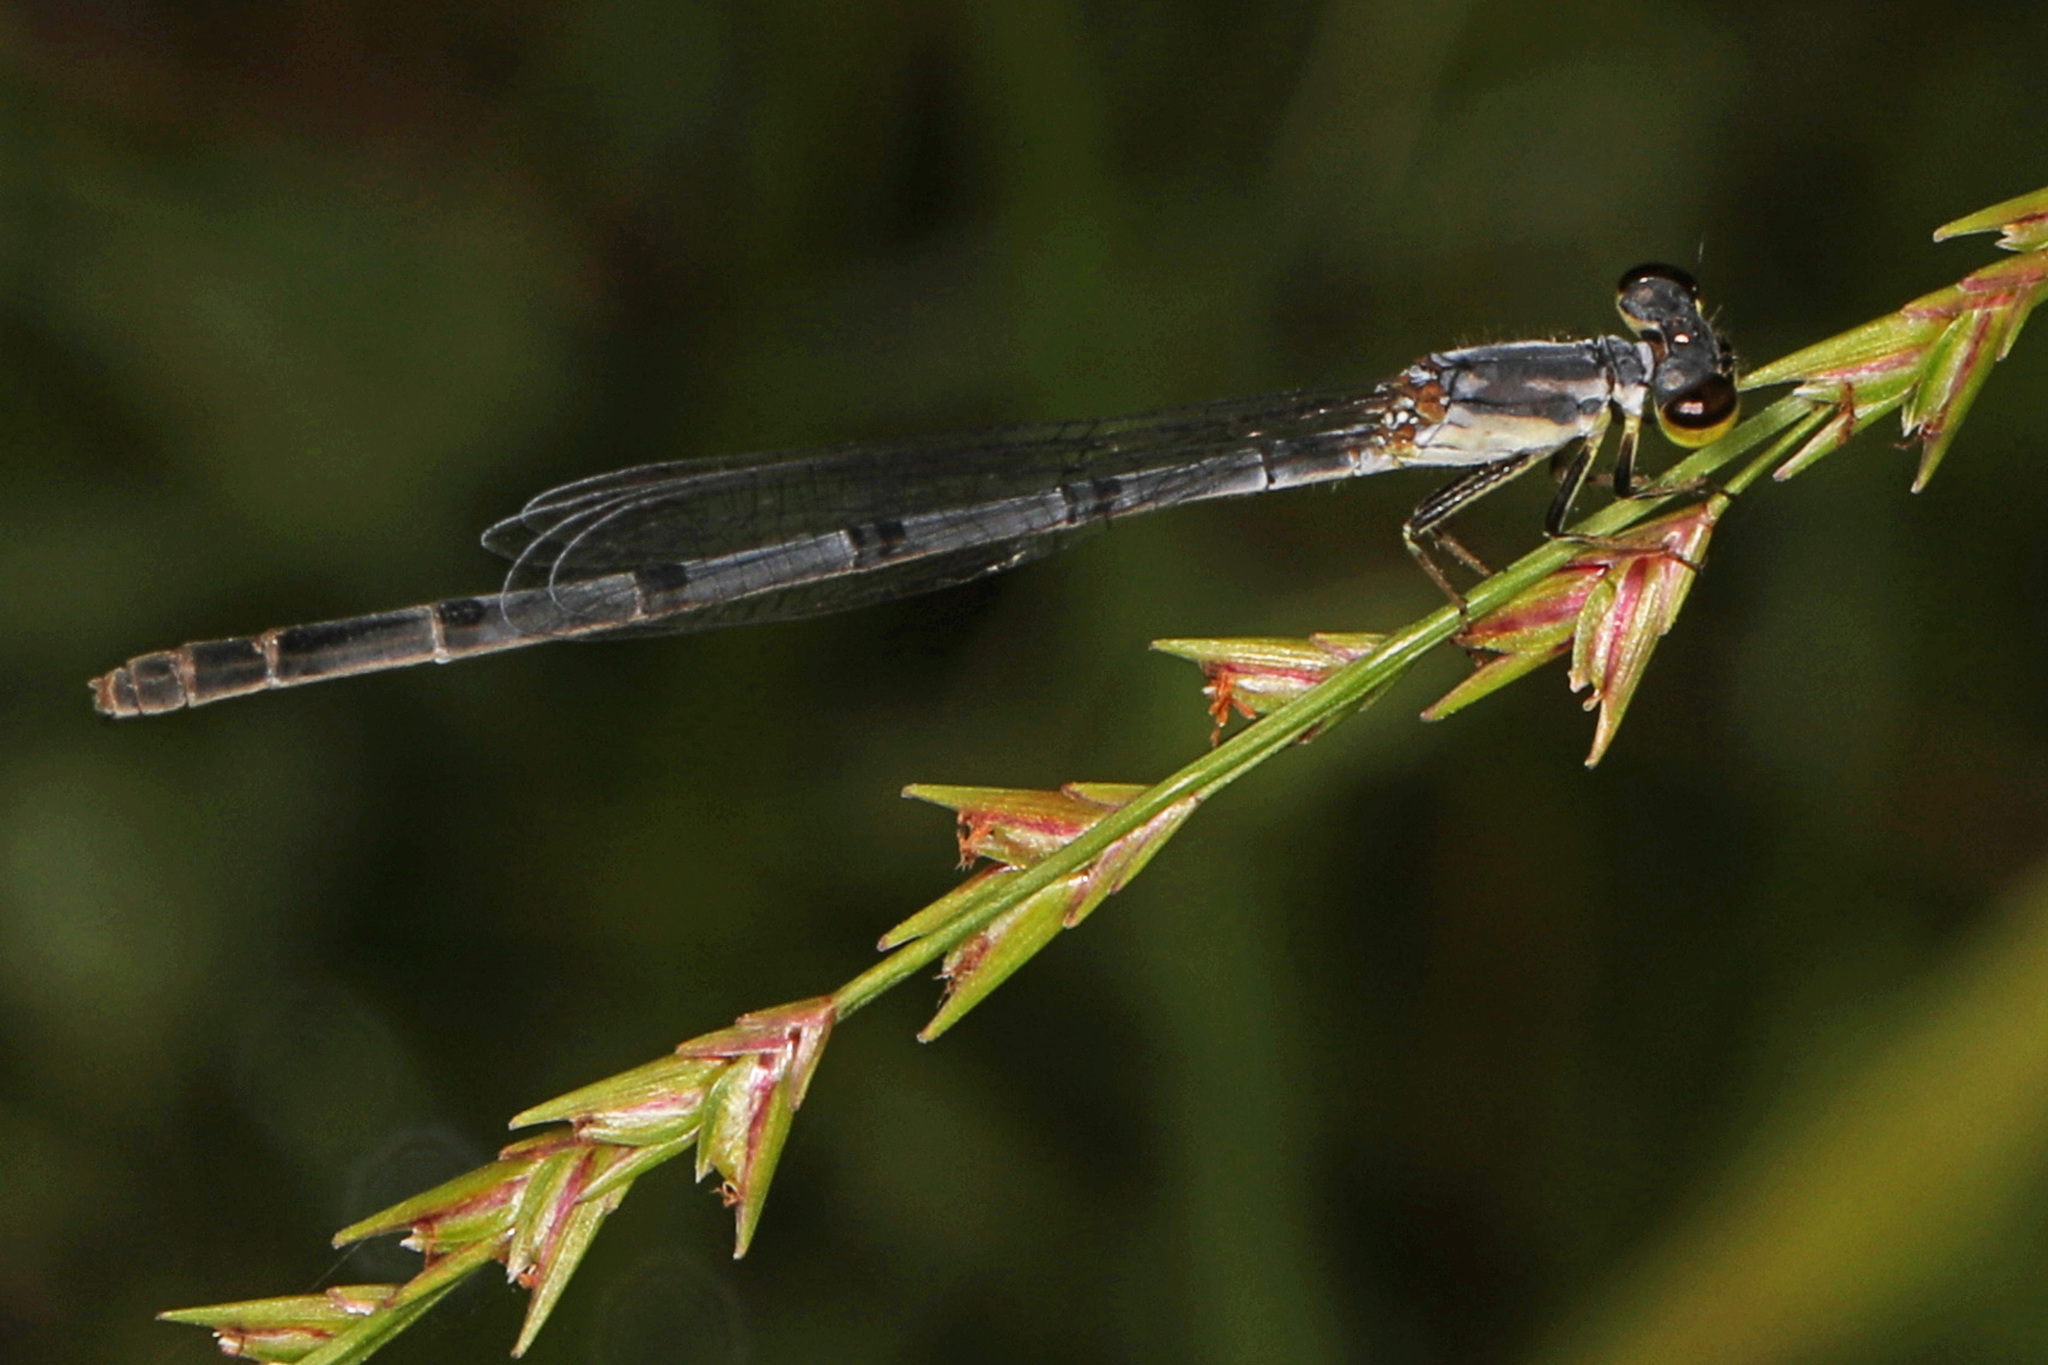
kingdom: Animalia
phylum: Arthropoda
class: Insecta
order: Odonata
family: Coenagrionidae
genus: Ischnura
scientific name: Ischnura posita
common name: Fragile forktail
